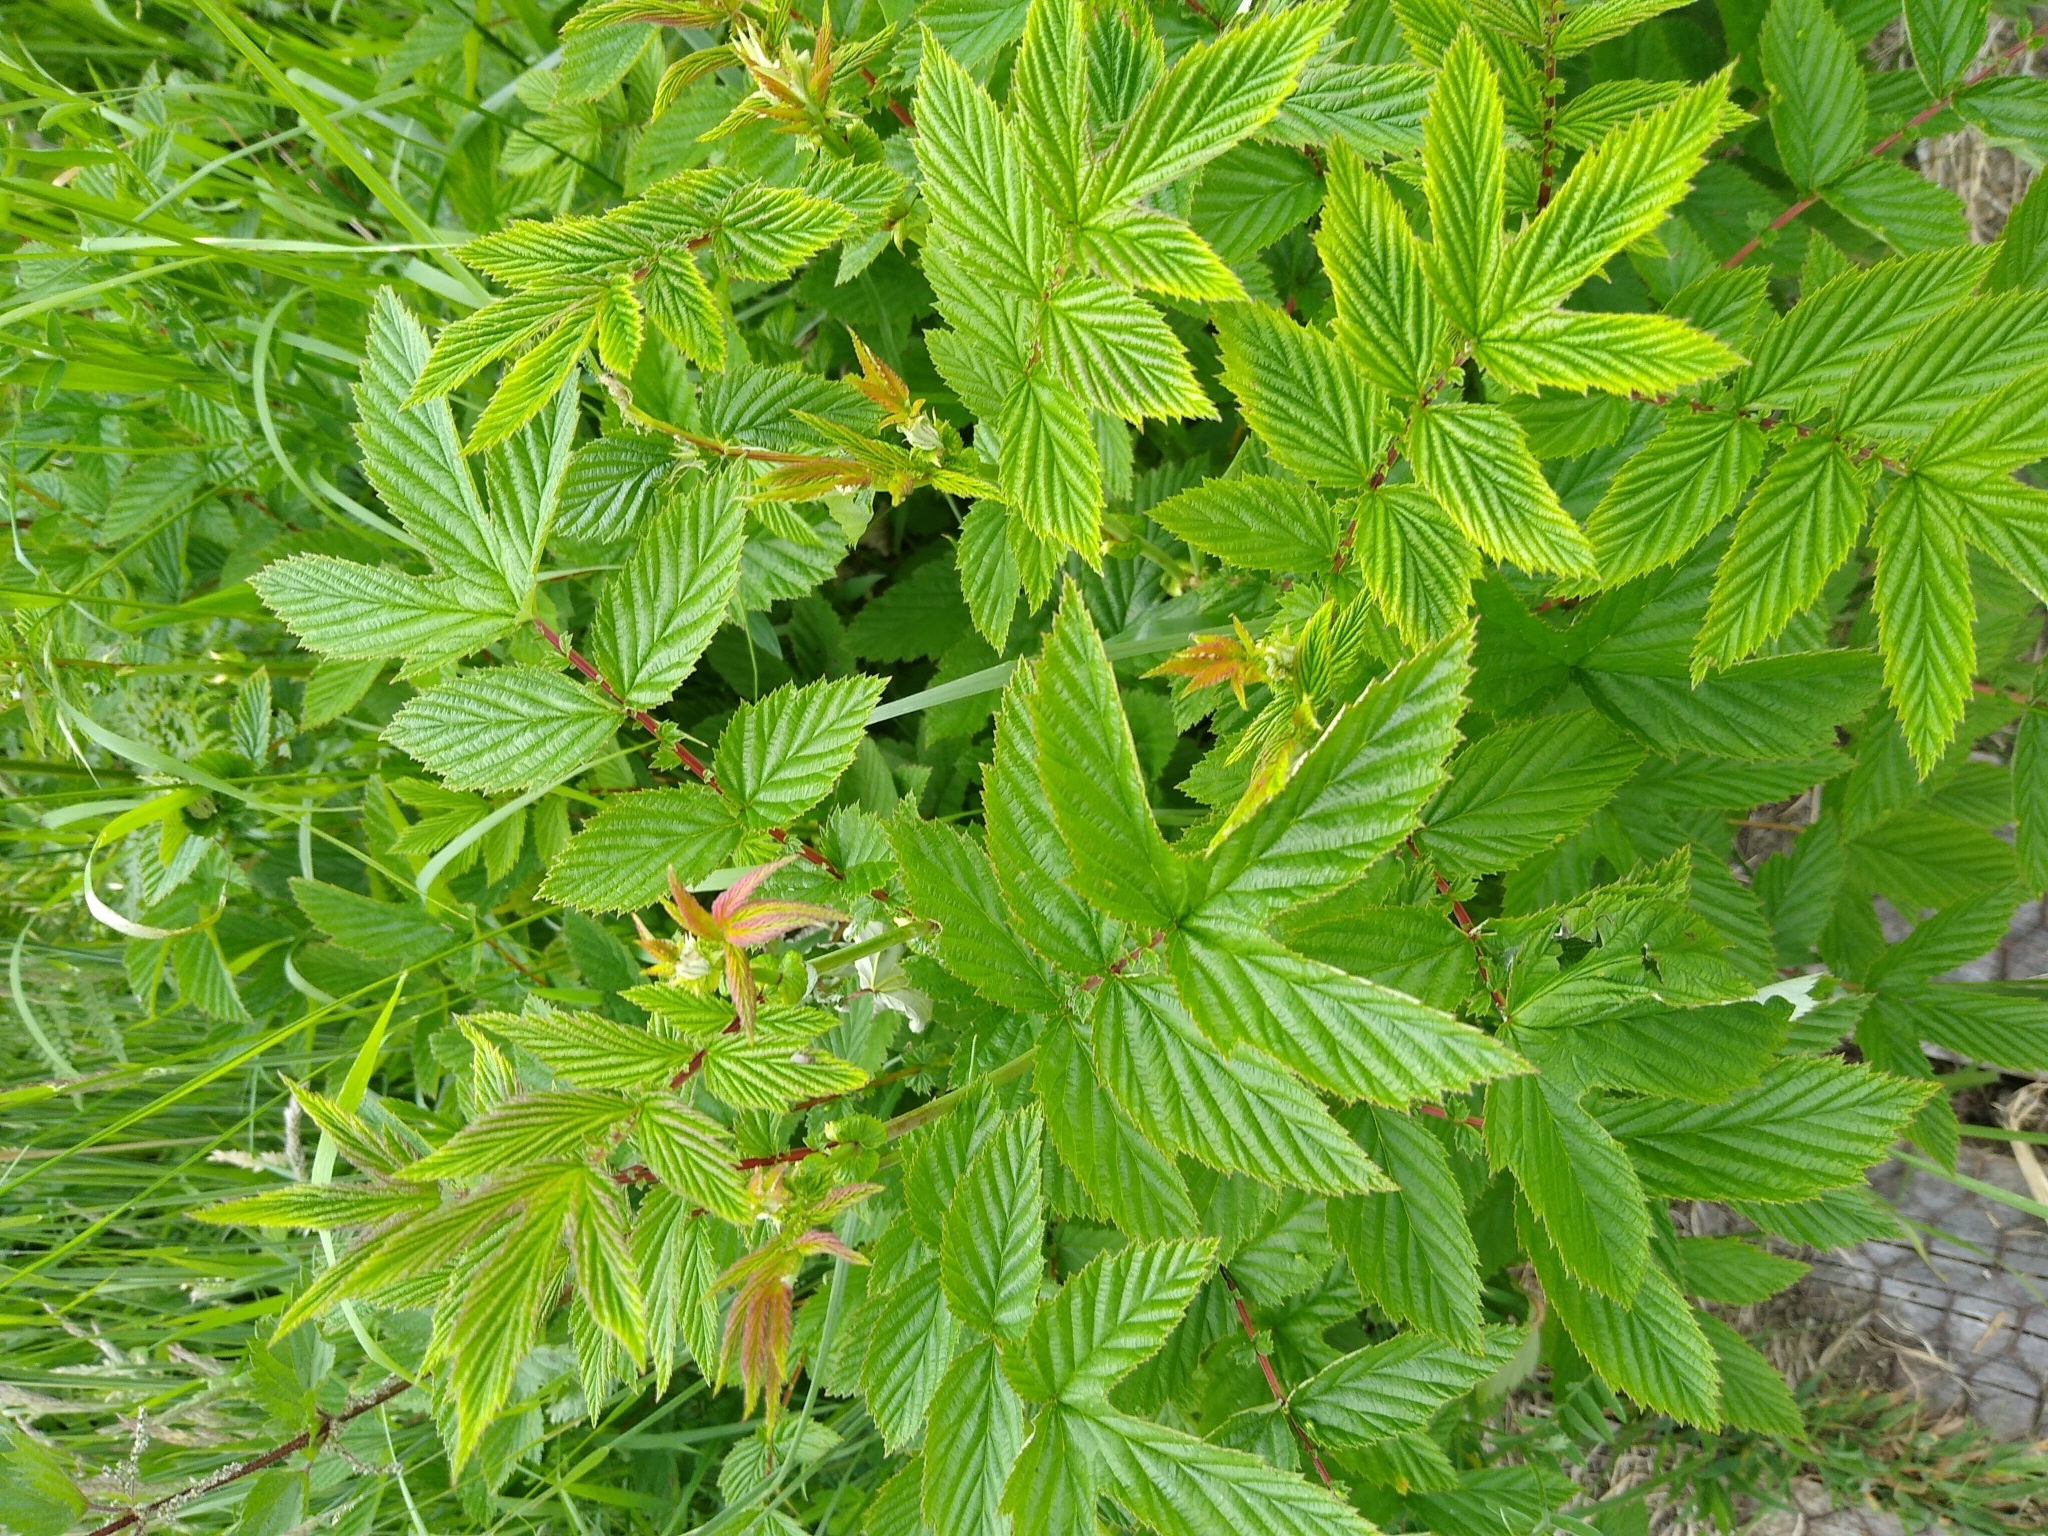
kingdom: Plantae
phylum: Tracheophyta
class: Magnoliopsida
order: Rosales
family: Rosaceae
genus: Filipendula
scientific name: Filipendula ulmaria
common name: Meadowsweet
